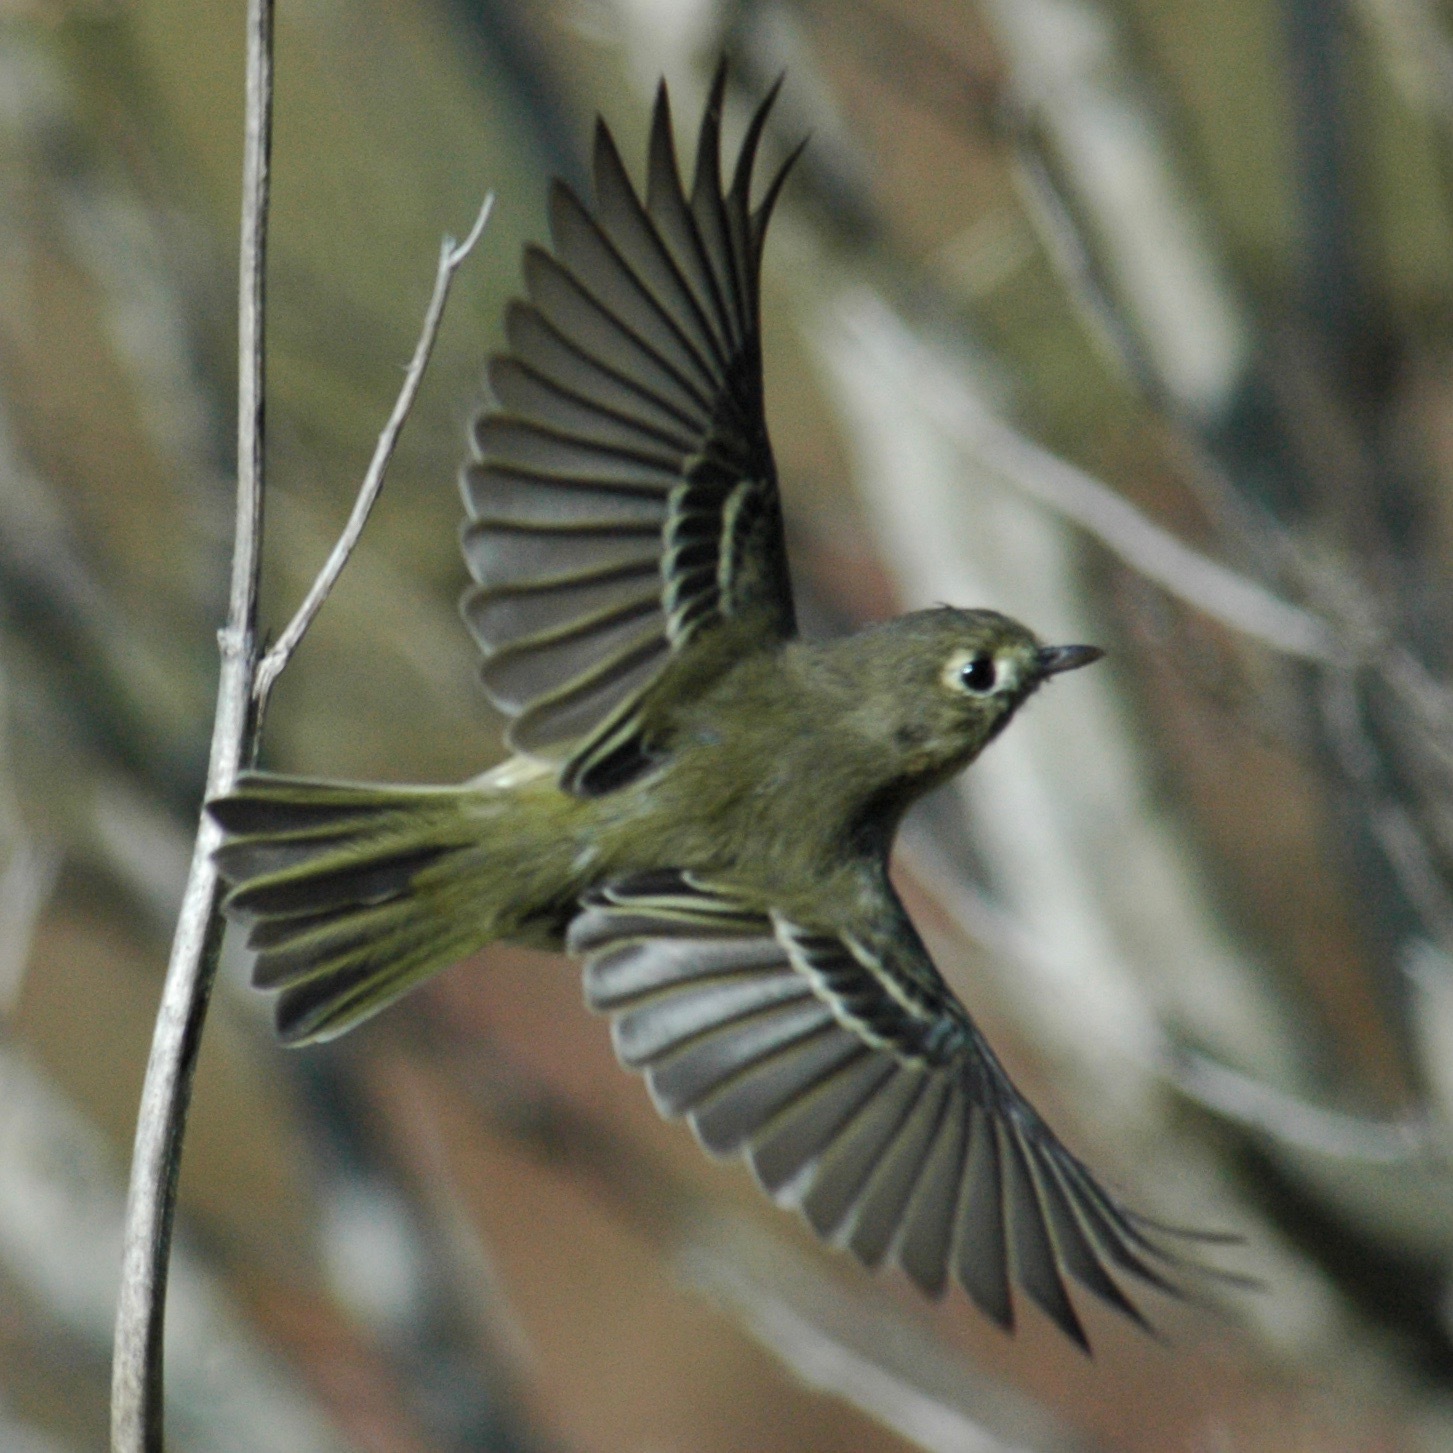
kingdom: Animalia
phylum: Chordata
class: Aves
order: Passeriformes
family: Vireonidae
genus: Vireo
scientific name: Vireo huttoni
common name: Hutton's vireo
